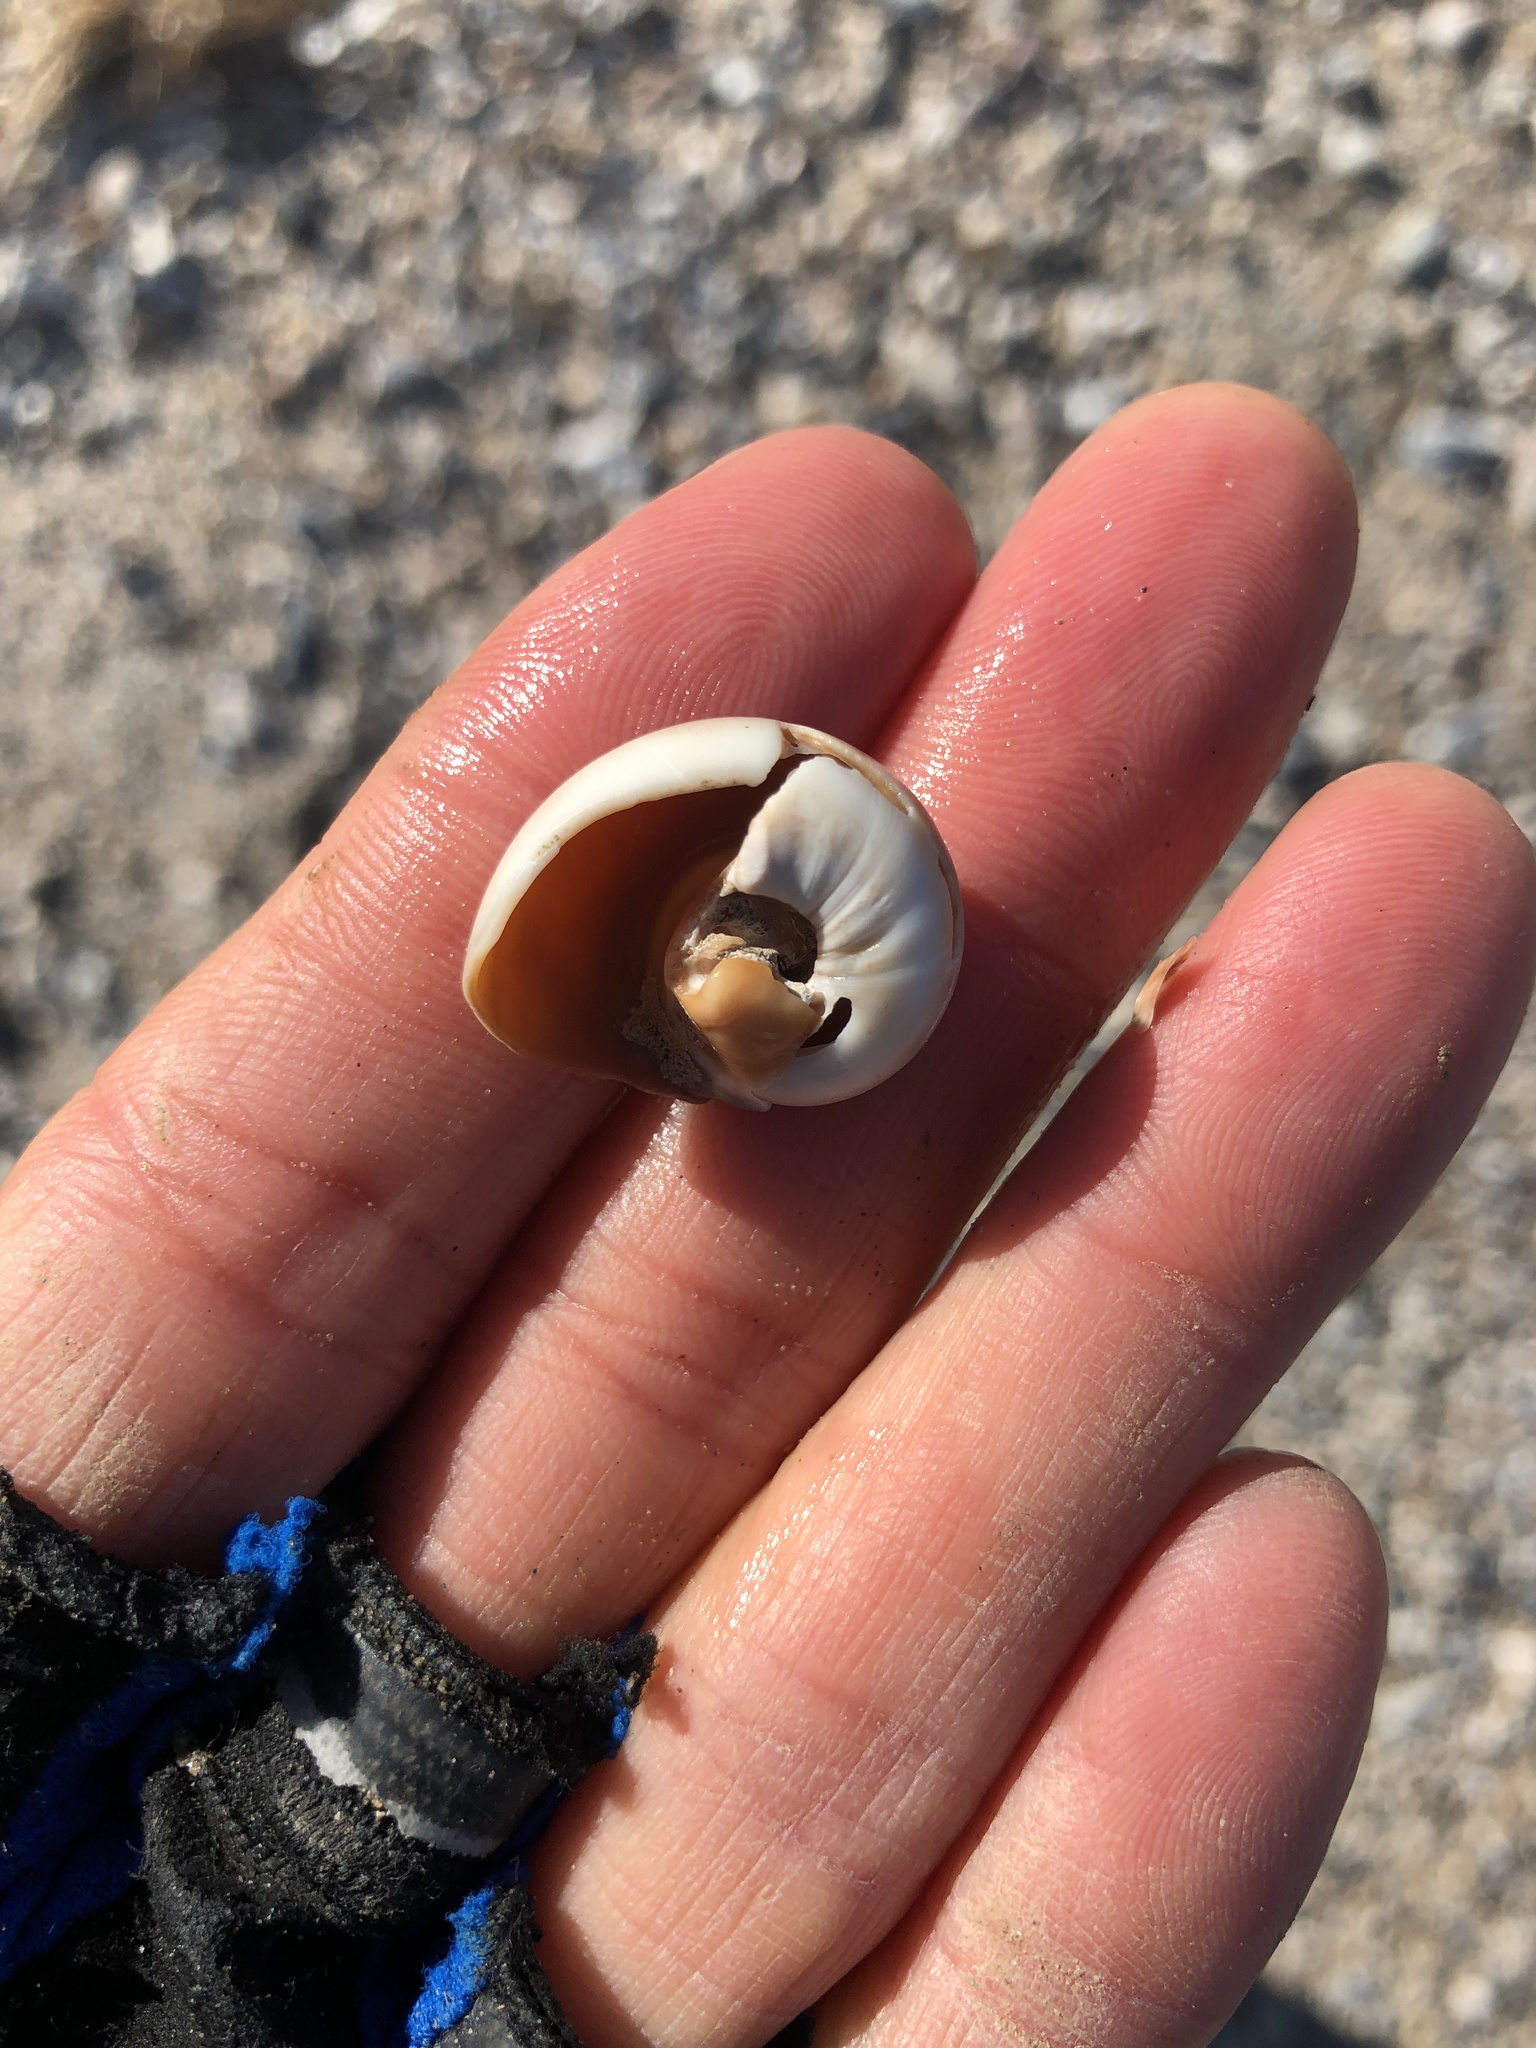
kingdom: Animalia
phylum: Mollusca
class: Gastropoda
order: Littorinimorpha
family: Naticidae
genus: Neverita
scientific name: Neverita delessertiana
